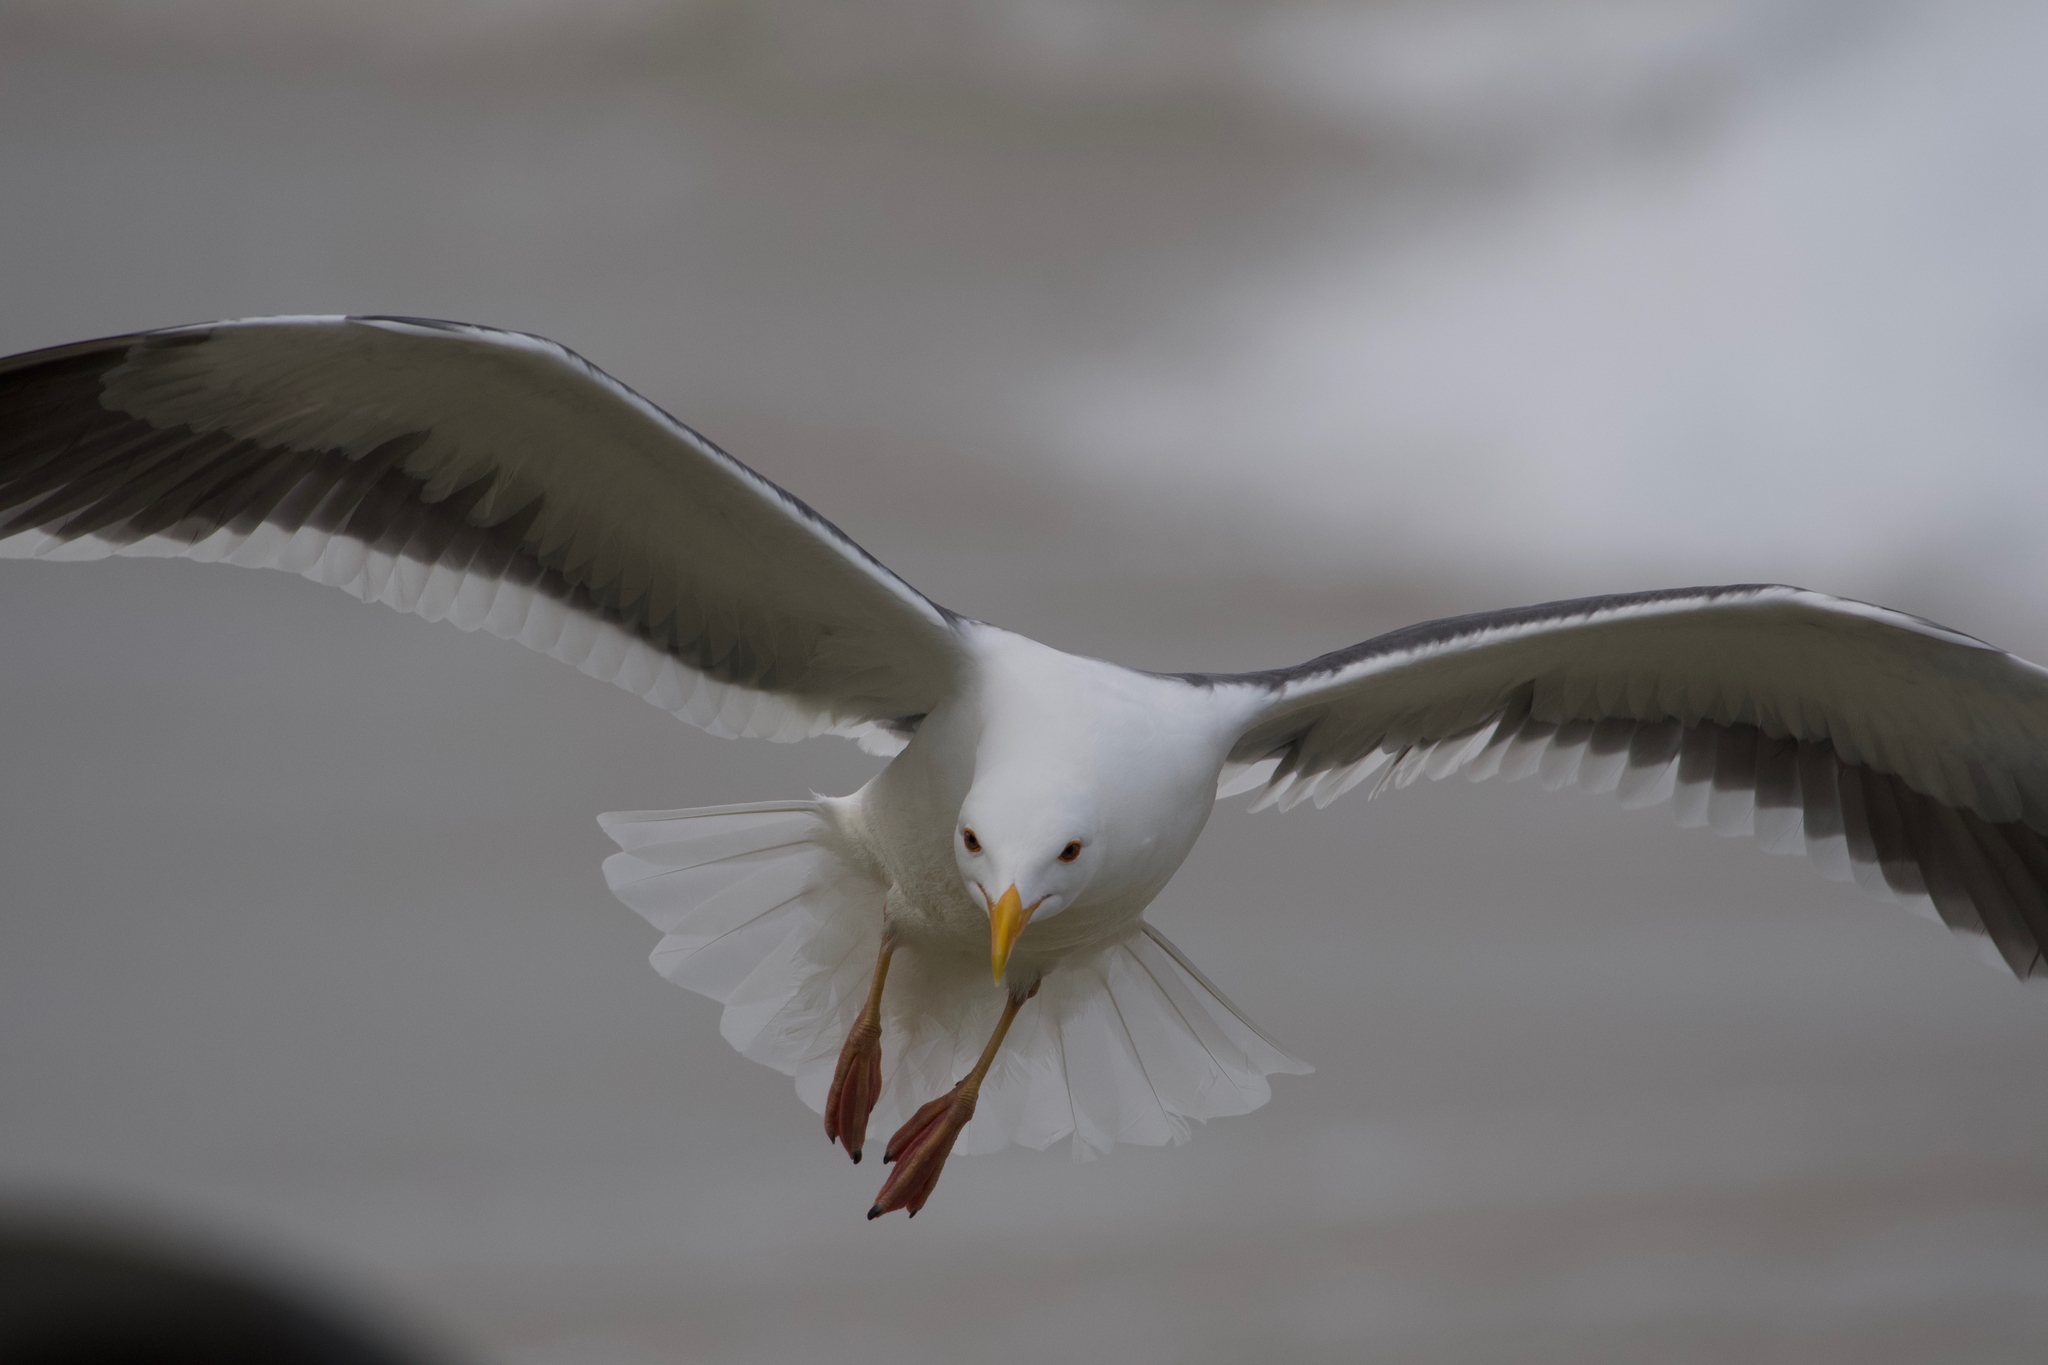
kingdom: Animalia
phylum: Chordata
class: Aves
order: Charadriiformes
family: Laridae
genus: Larus
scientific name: Larus occidentalis
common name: Western gull
